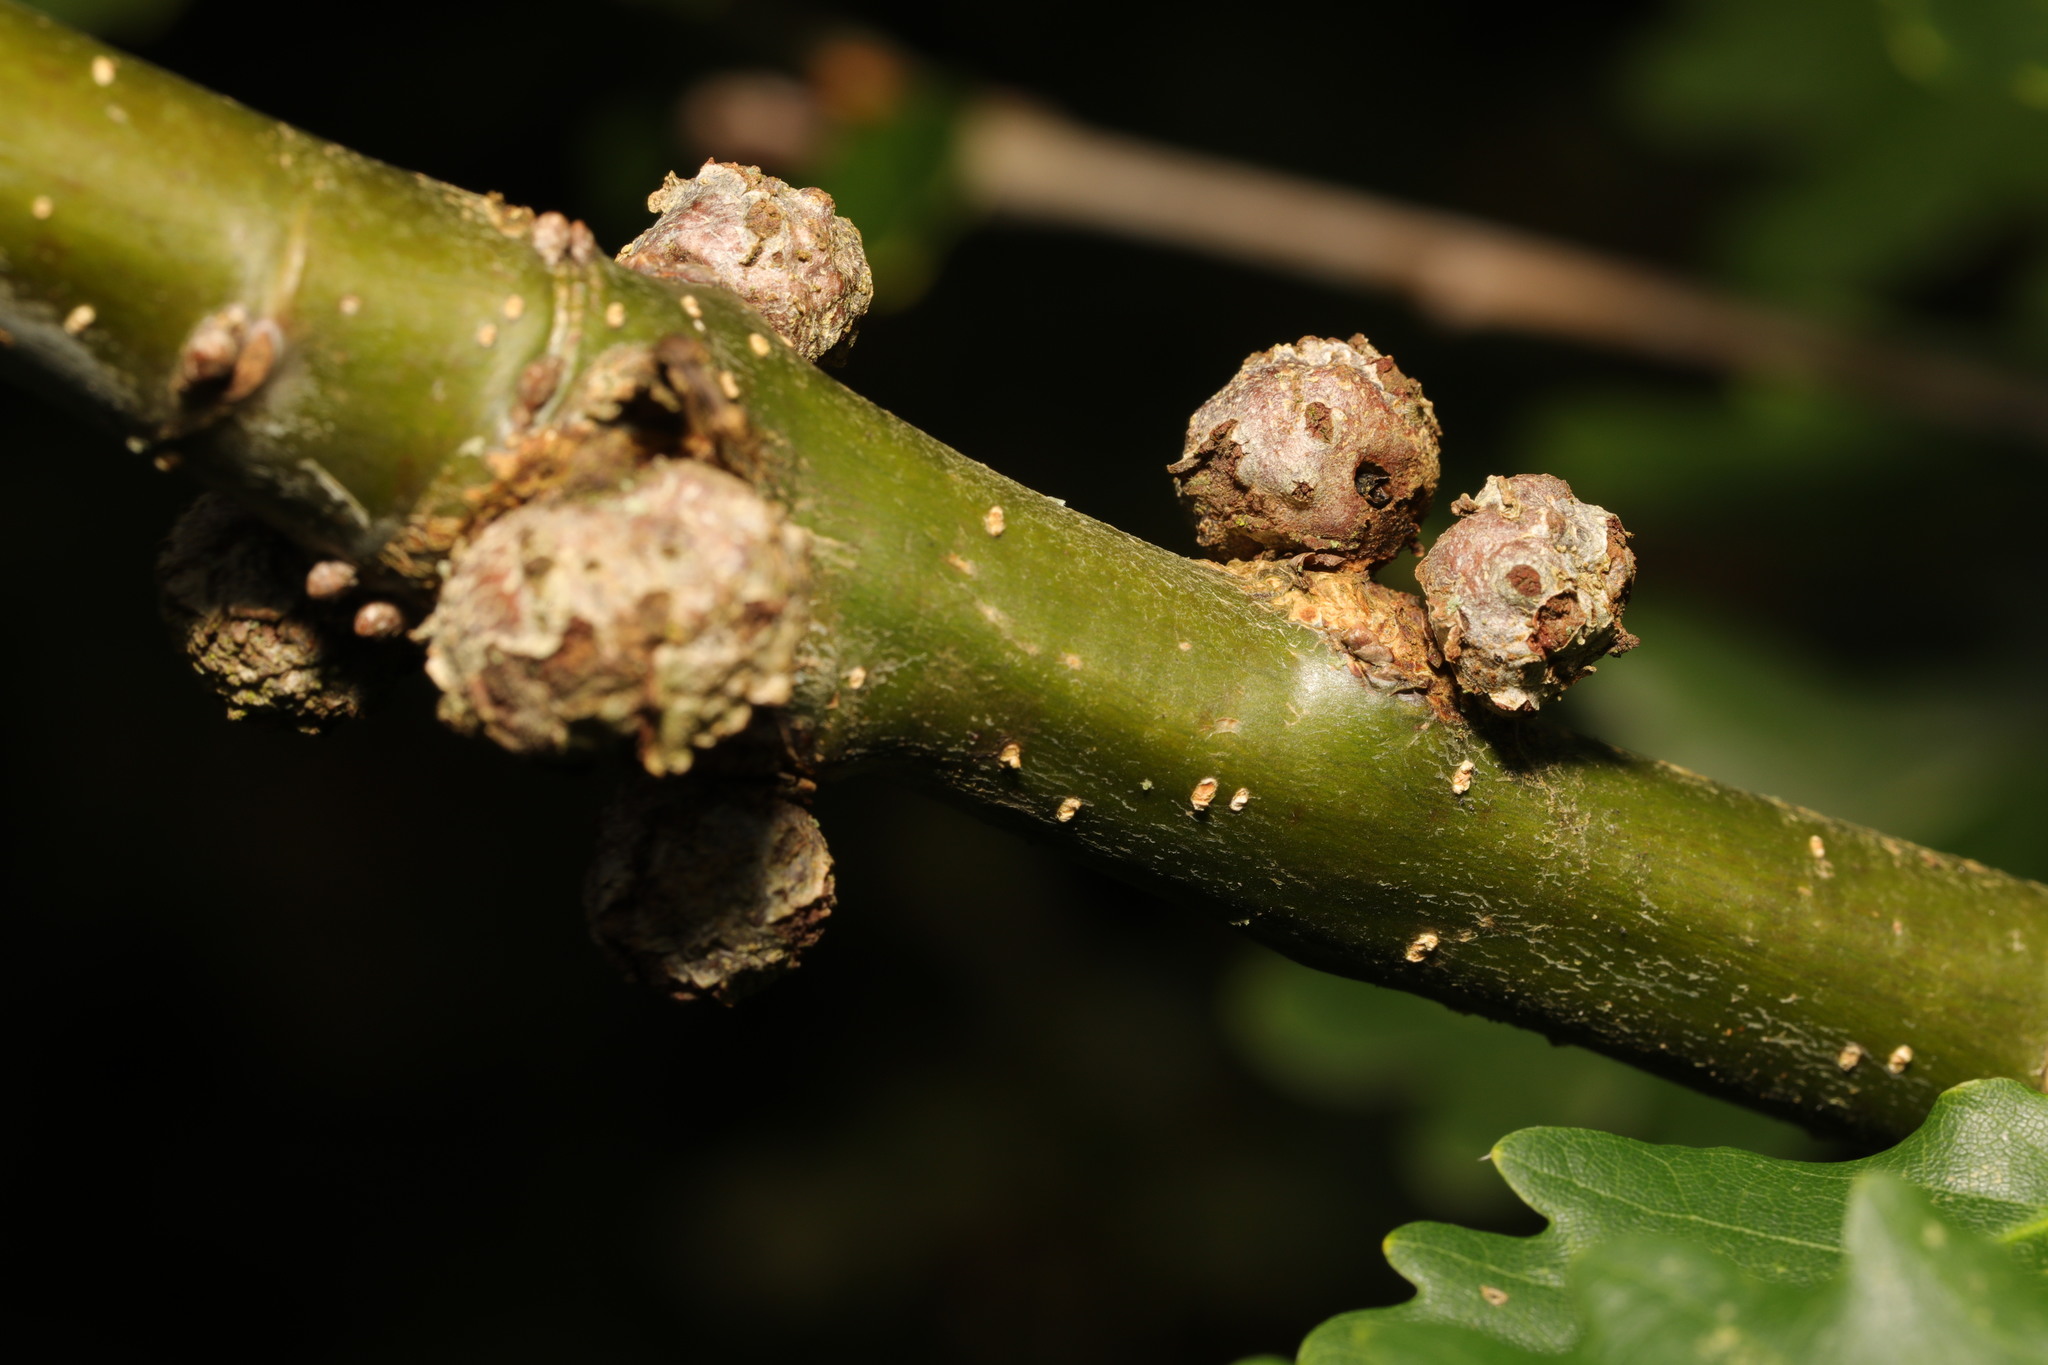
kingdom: Animalia
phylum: Arthropoda
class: Insecta
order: Hymenoptera
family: Cynipidae
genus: Andricus
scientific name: Andricus lignicolus
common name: Cola-nut gall
